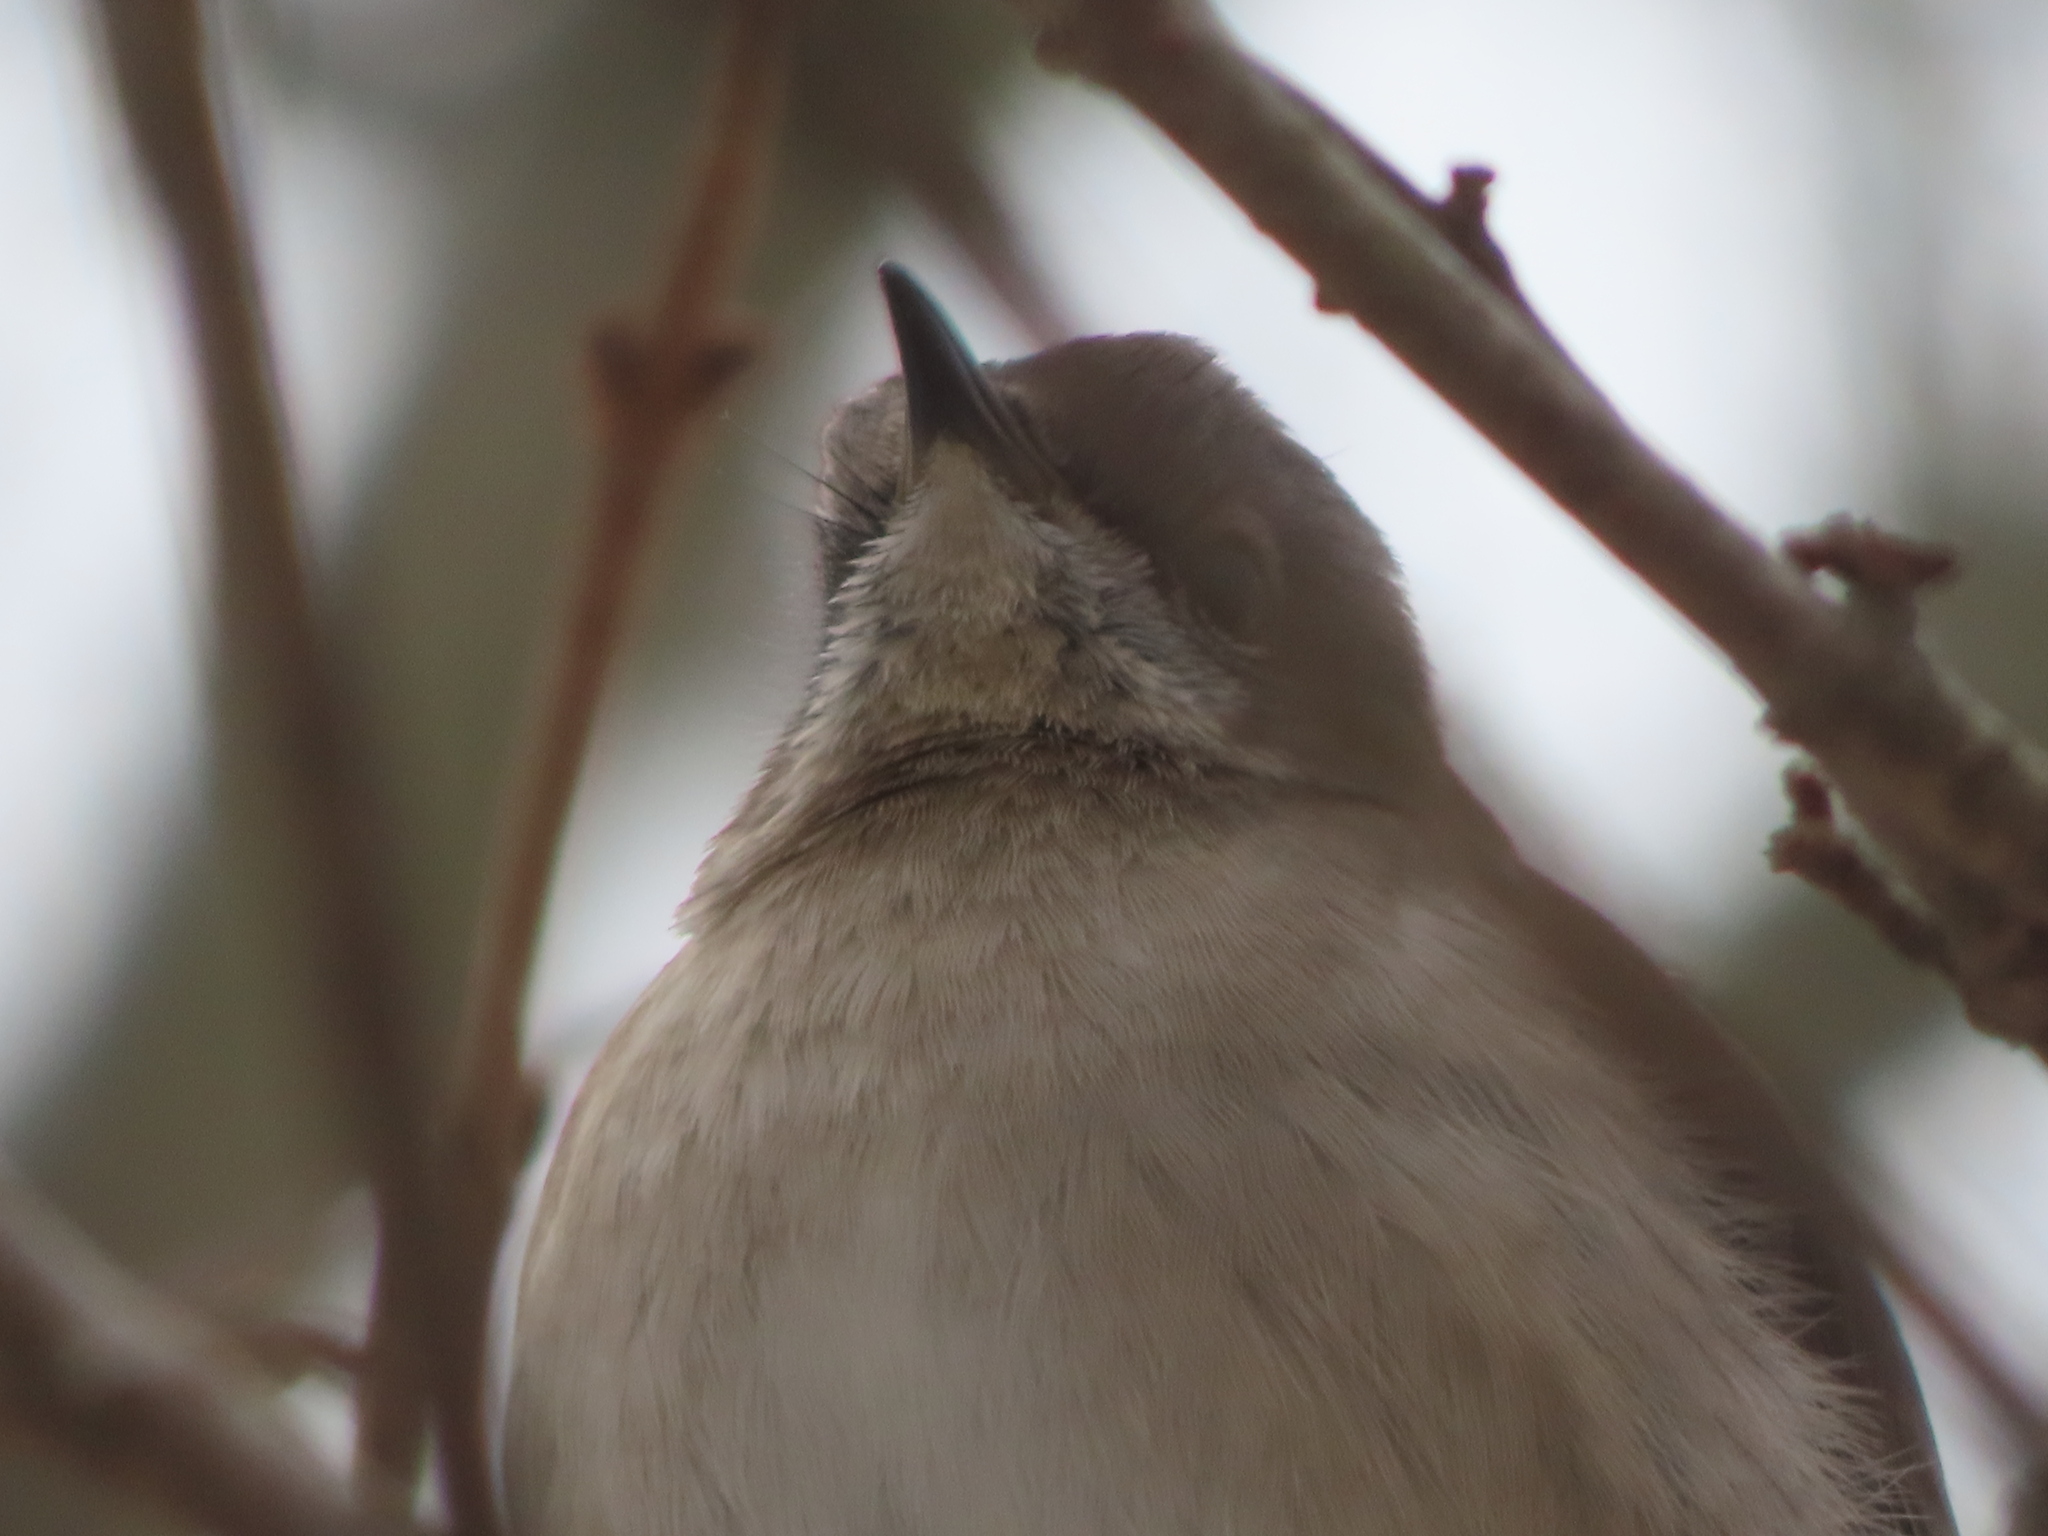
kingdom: Animalia
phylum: Chordata
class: Aves
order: Passeriformes
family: Mimidae
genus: Mimus
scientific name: Mimus polyglottos
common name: Northern mockingbird
